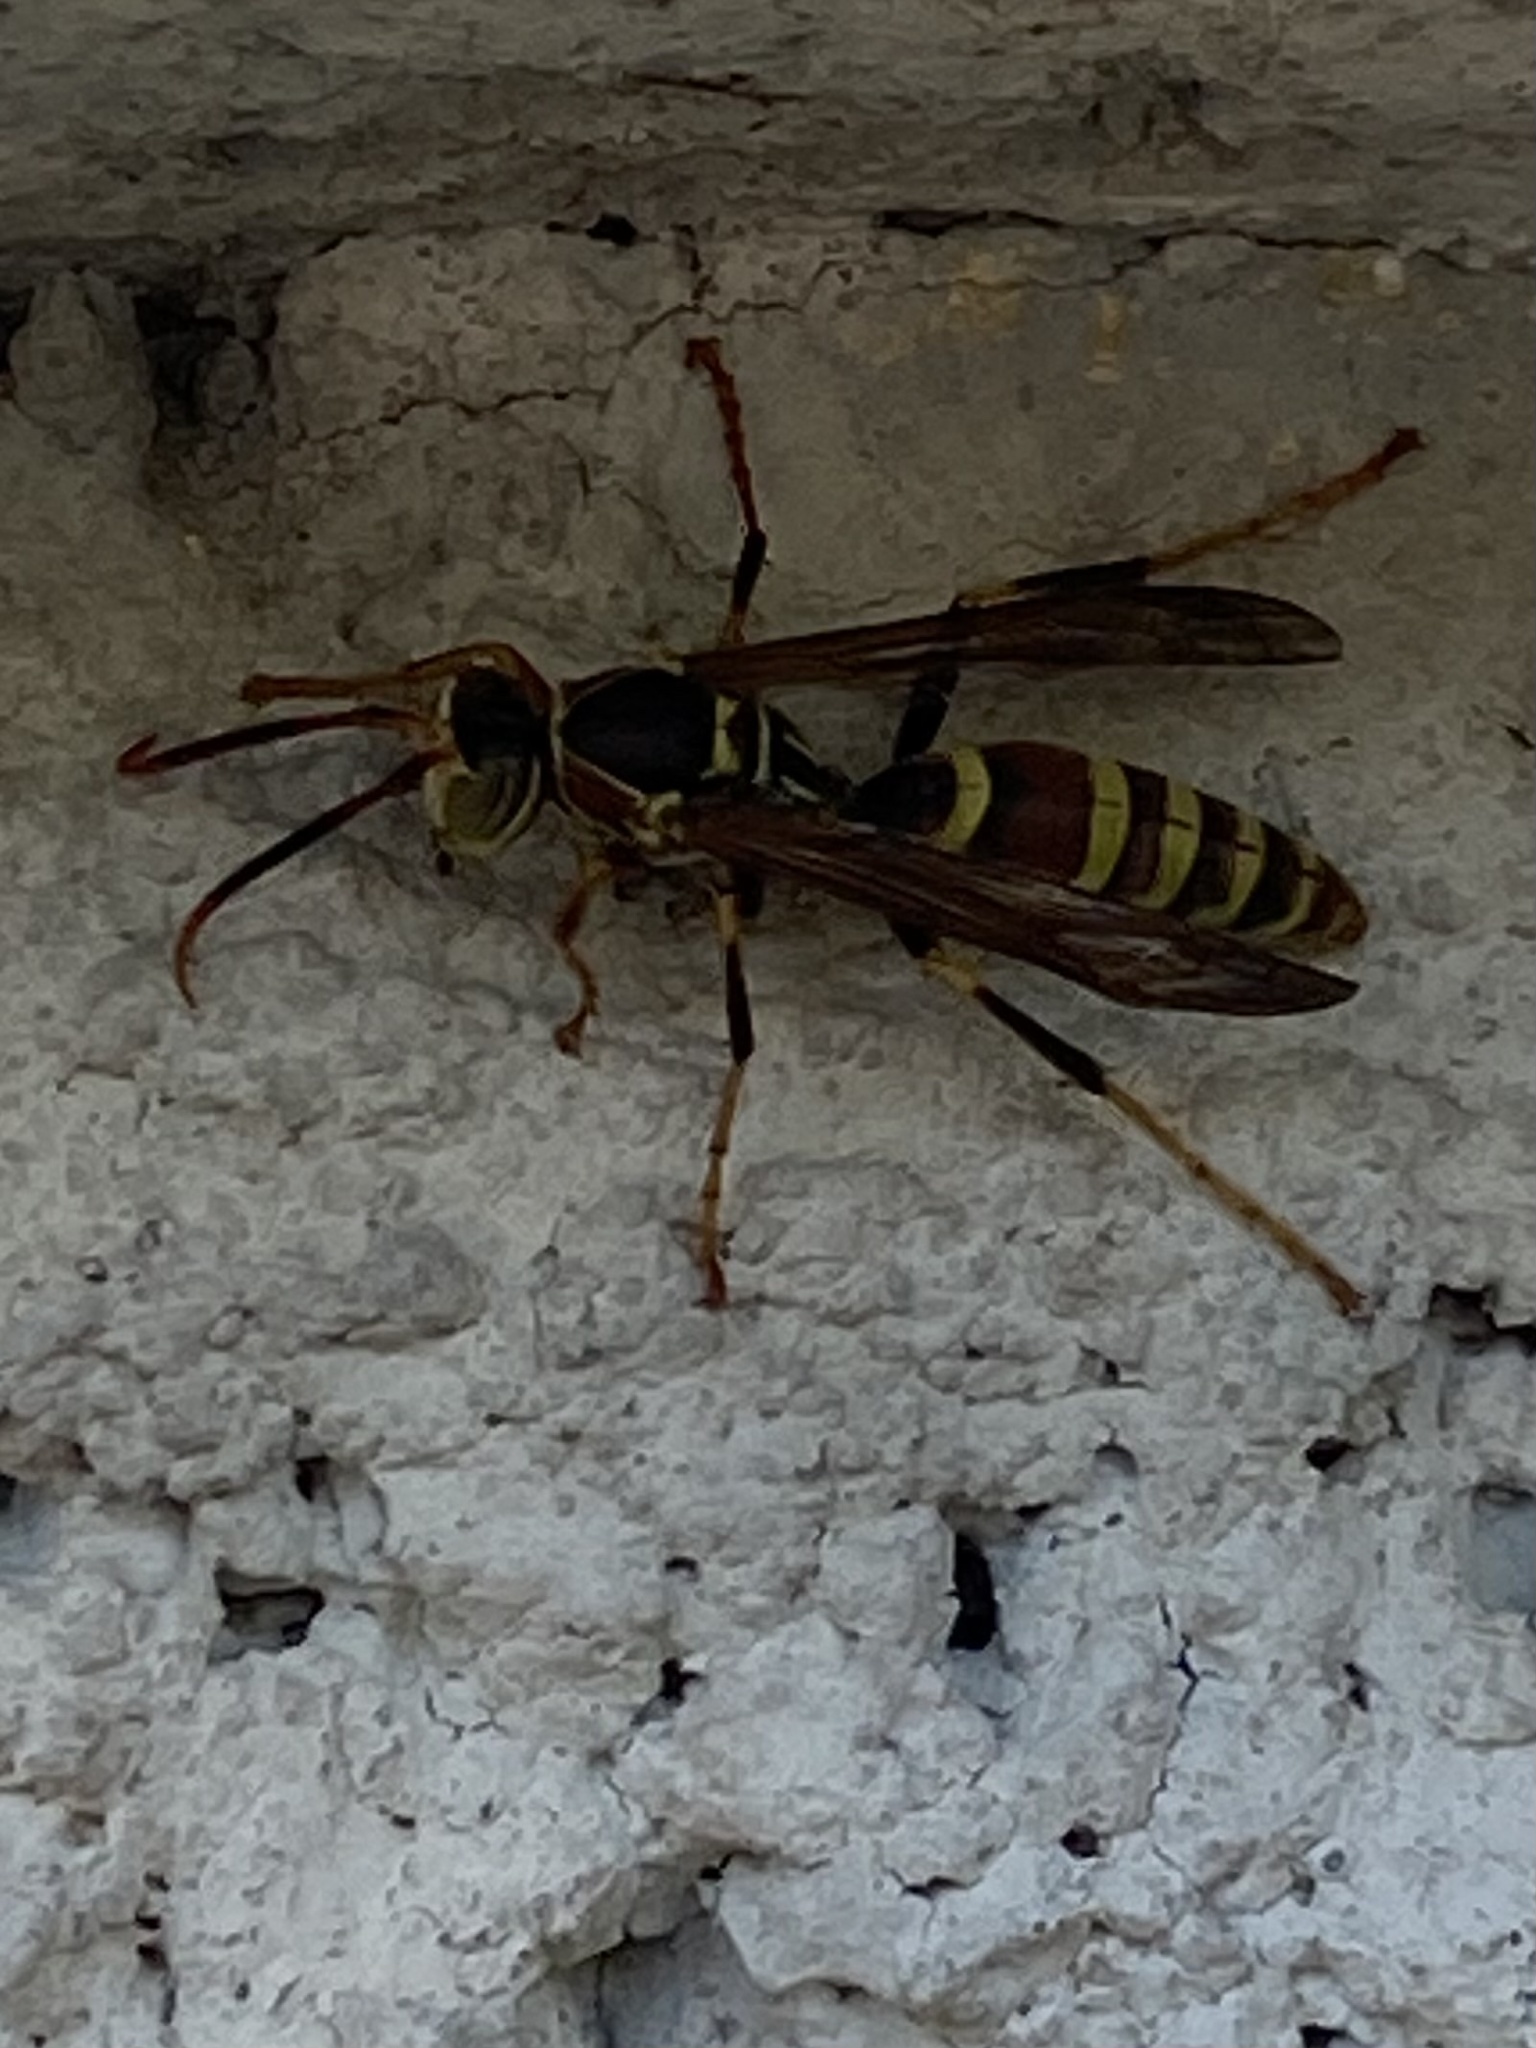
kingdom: Animalia
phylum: Arthropoda
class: Insecta
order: Hymenoptera
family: Eumenidae
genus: Polistes
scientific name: Polistes exclamans
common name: Paper wasp
